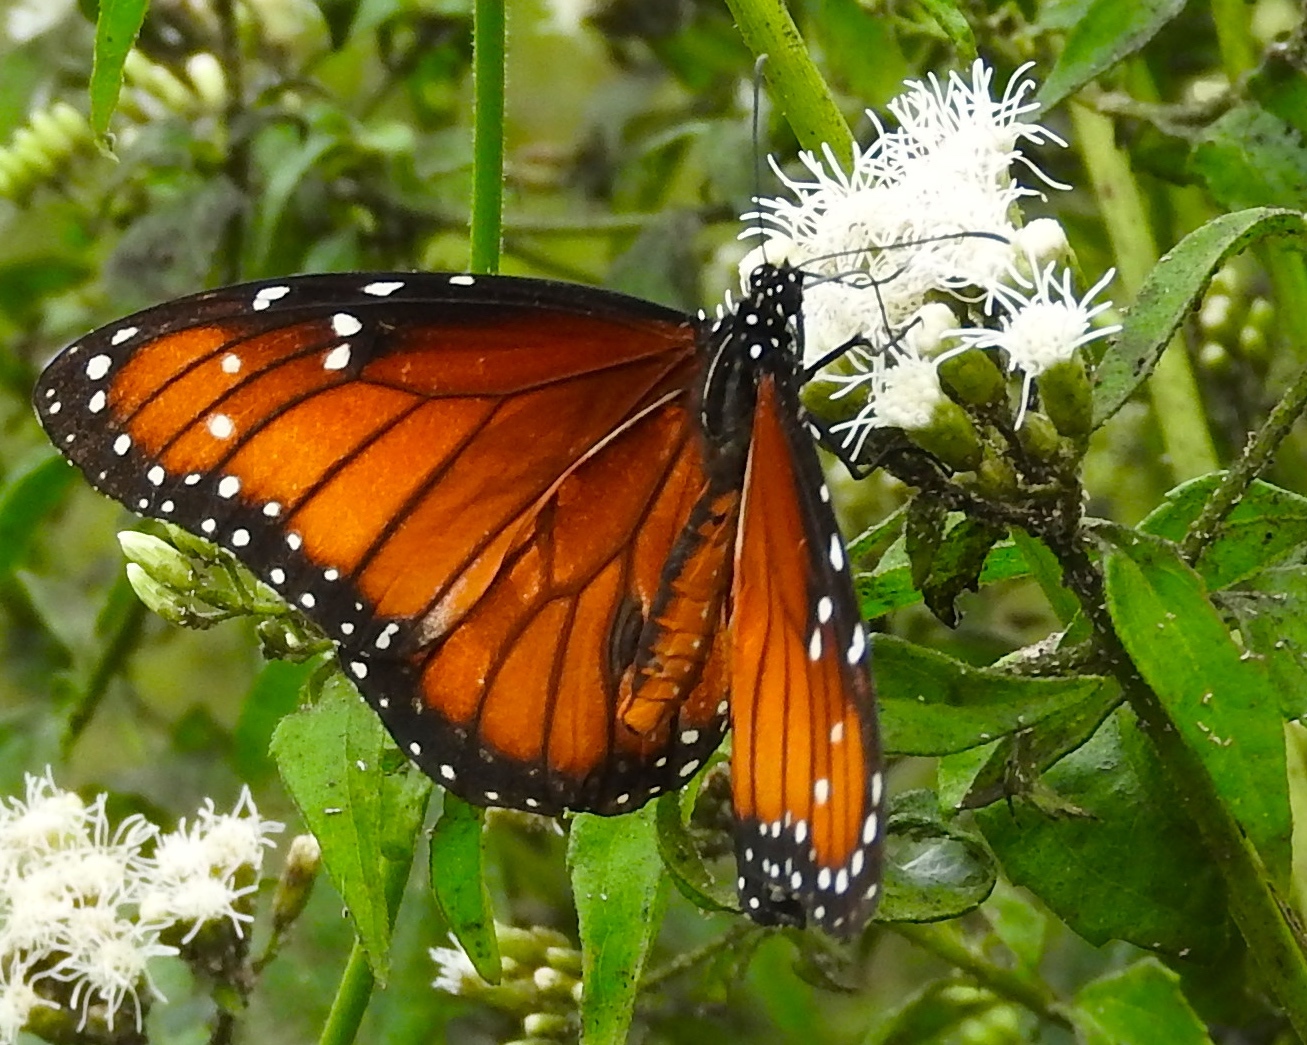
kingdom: Animalia
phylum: Arthropoda
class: Insecta
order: Lepidoptera
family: Nymphalidae
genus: Danaus
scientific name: Danaus eresimus
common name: Soldier
